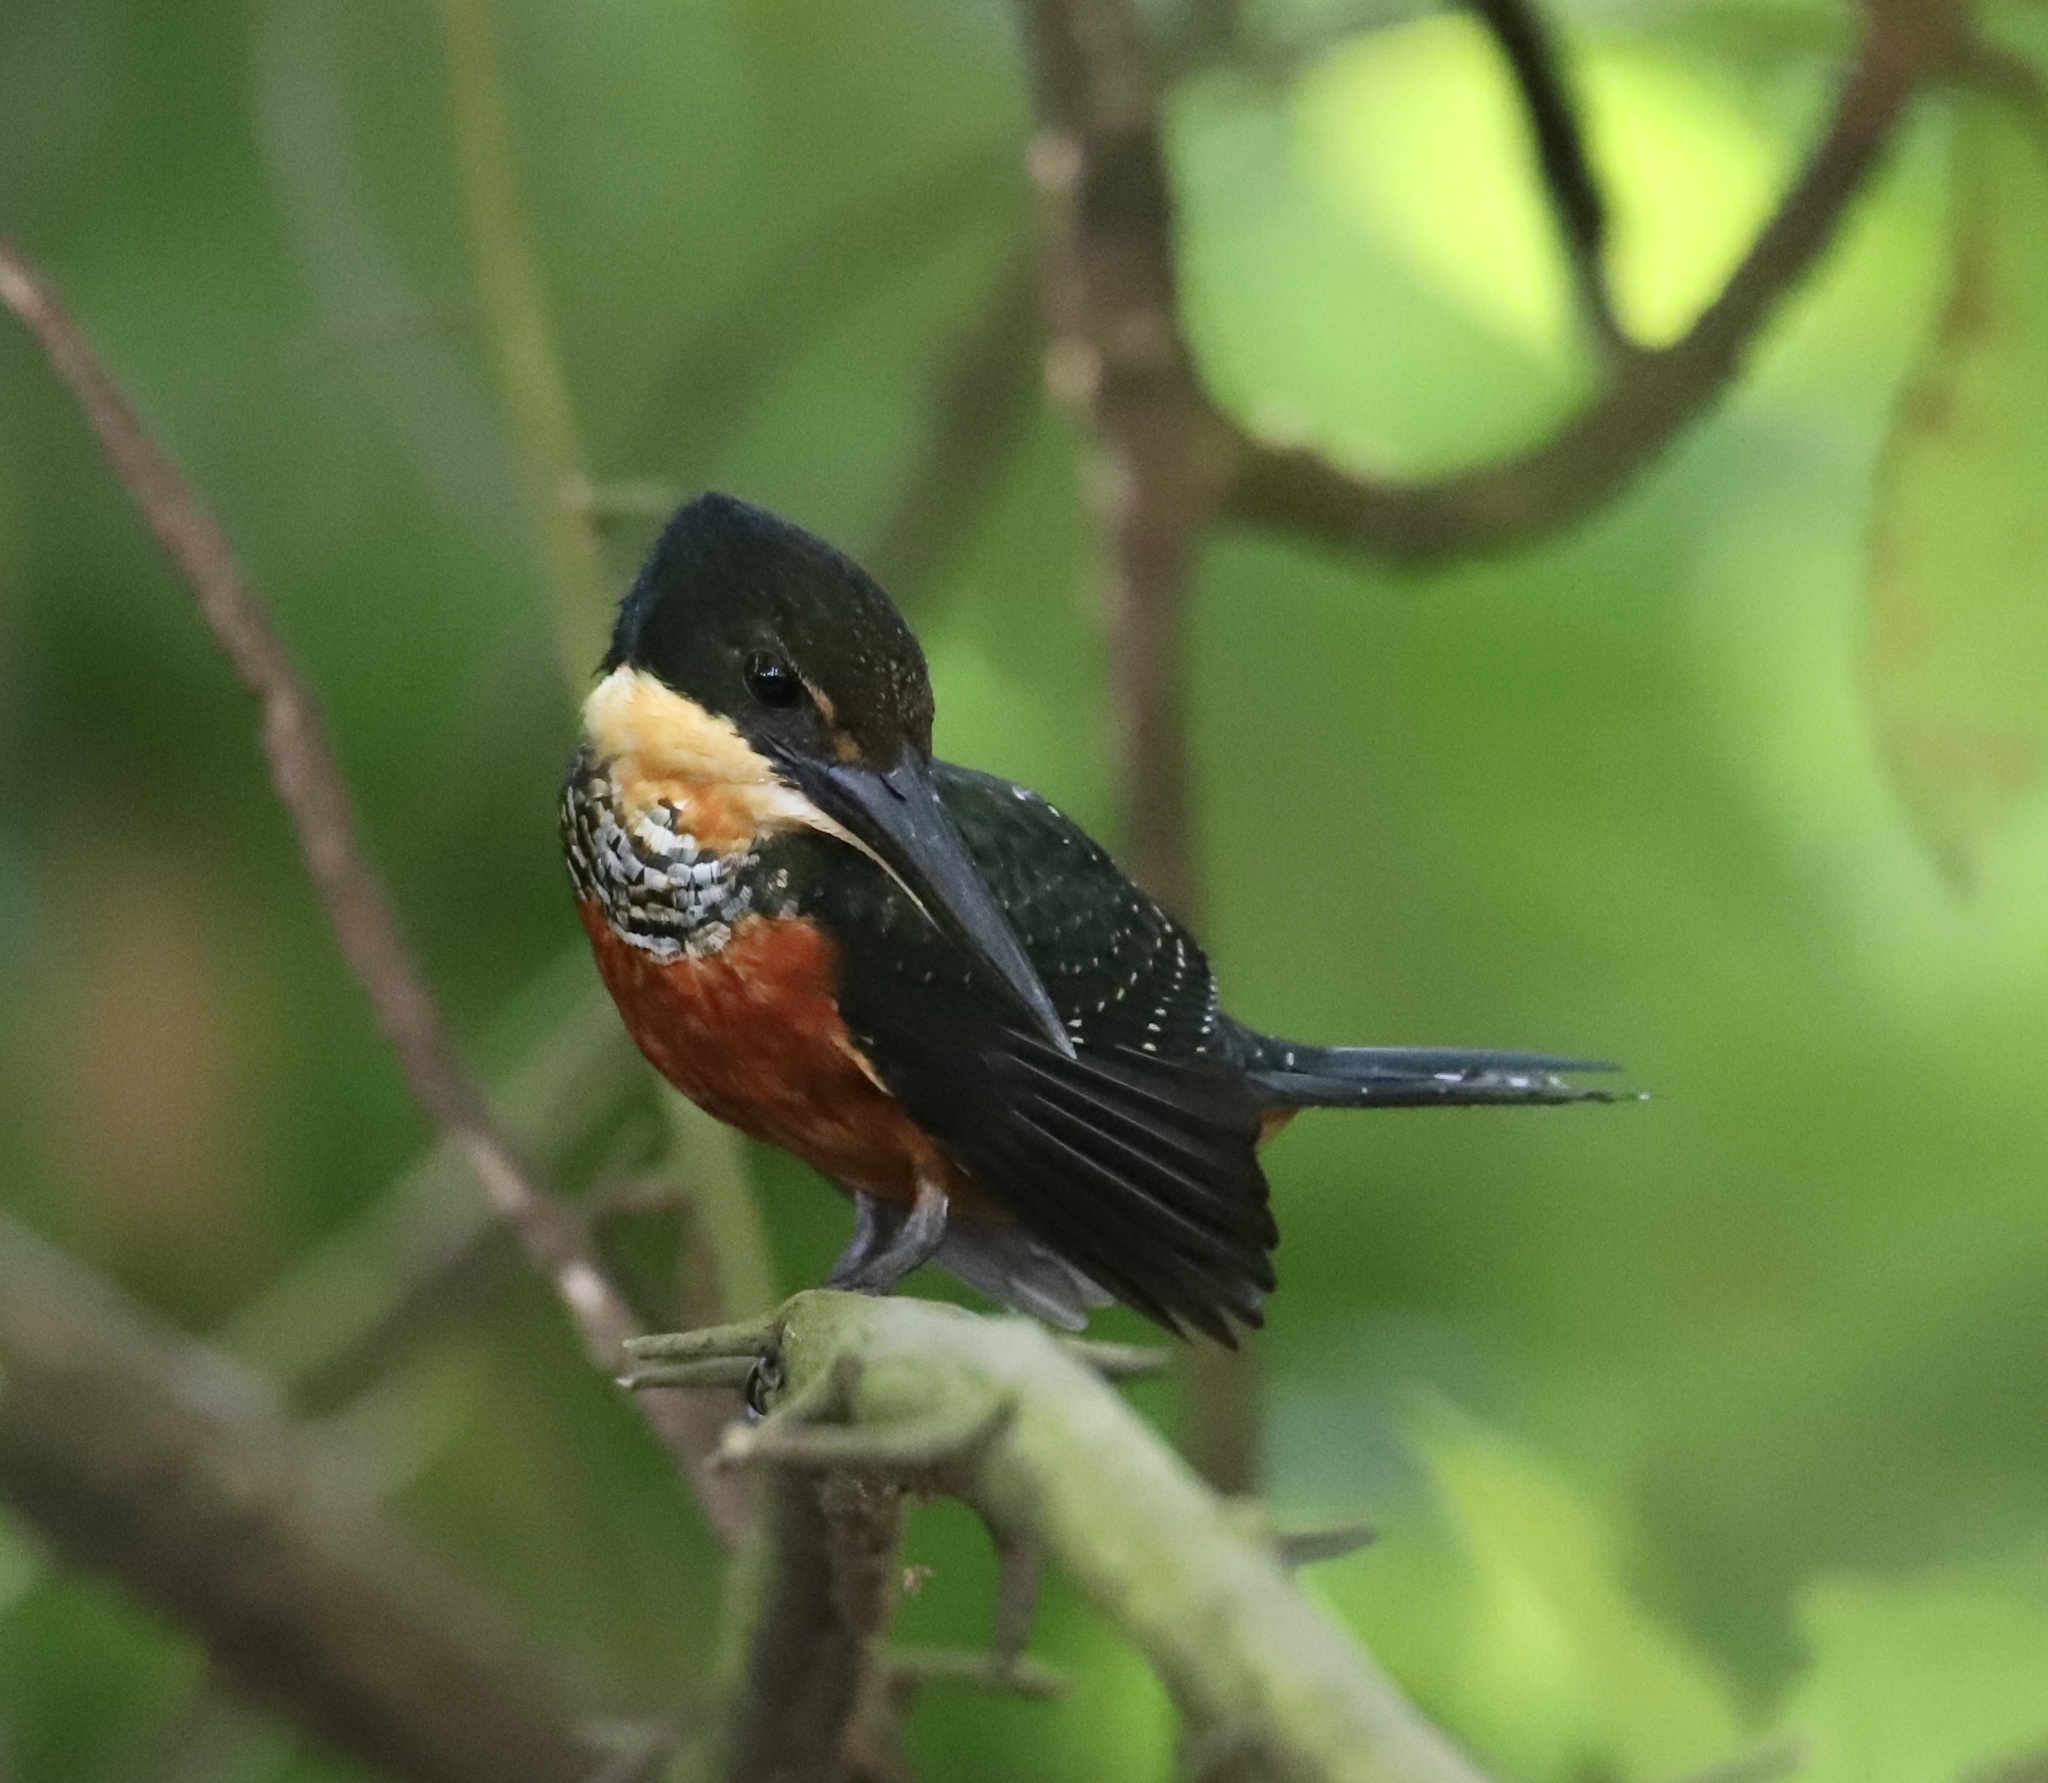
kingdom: Animalia
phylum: Chordata
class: Aves
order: Coraciiformes
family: Alcedinidae
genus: Chloroceryle
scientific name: Chloroceryle inda
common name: Green-and-rufous kingfisher
